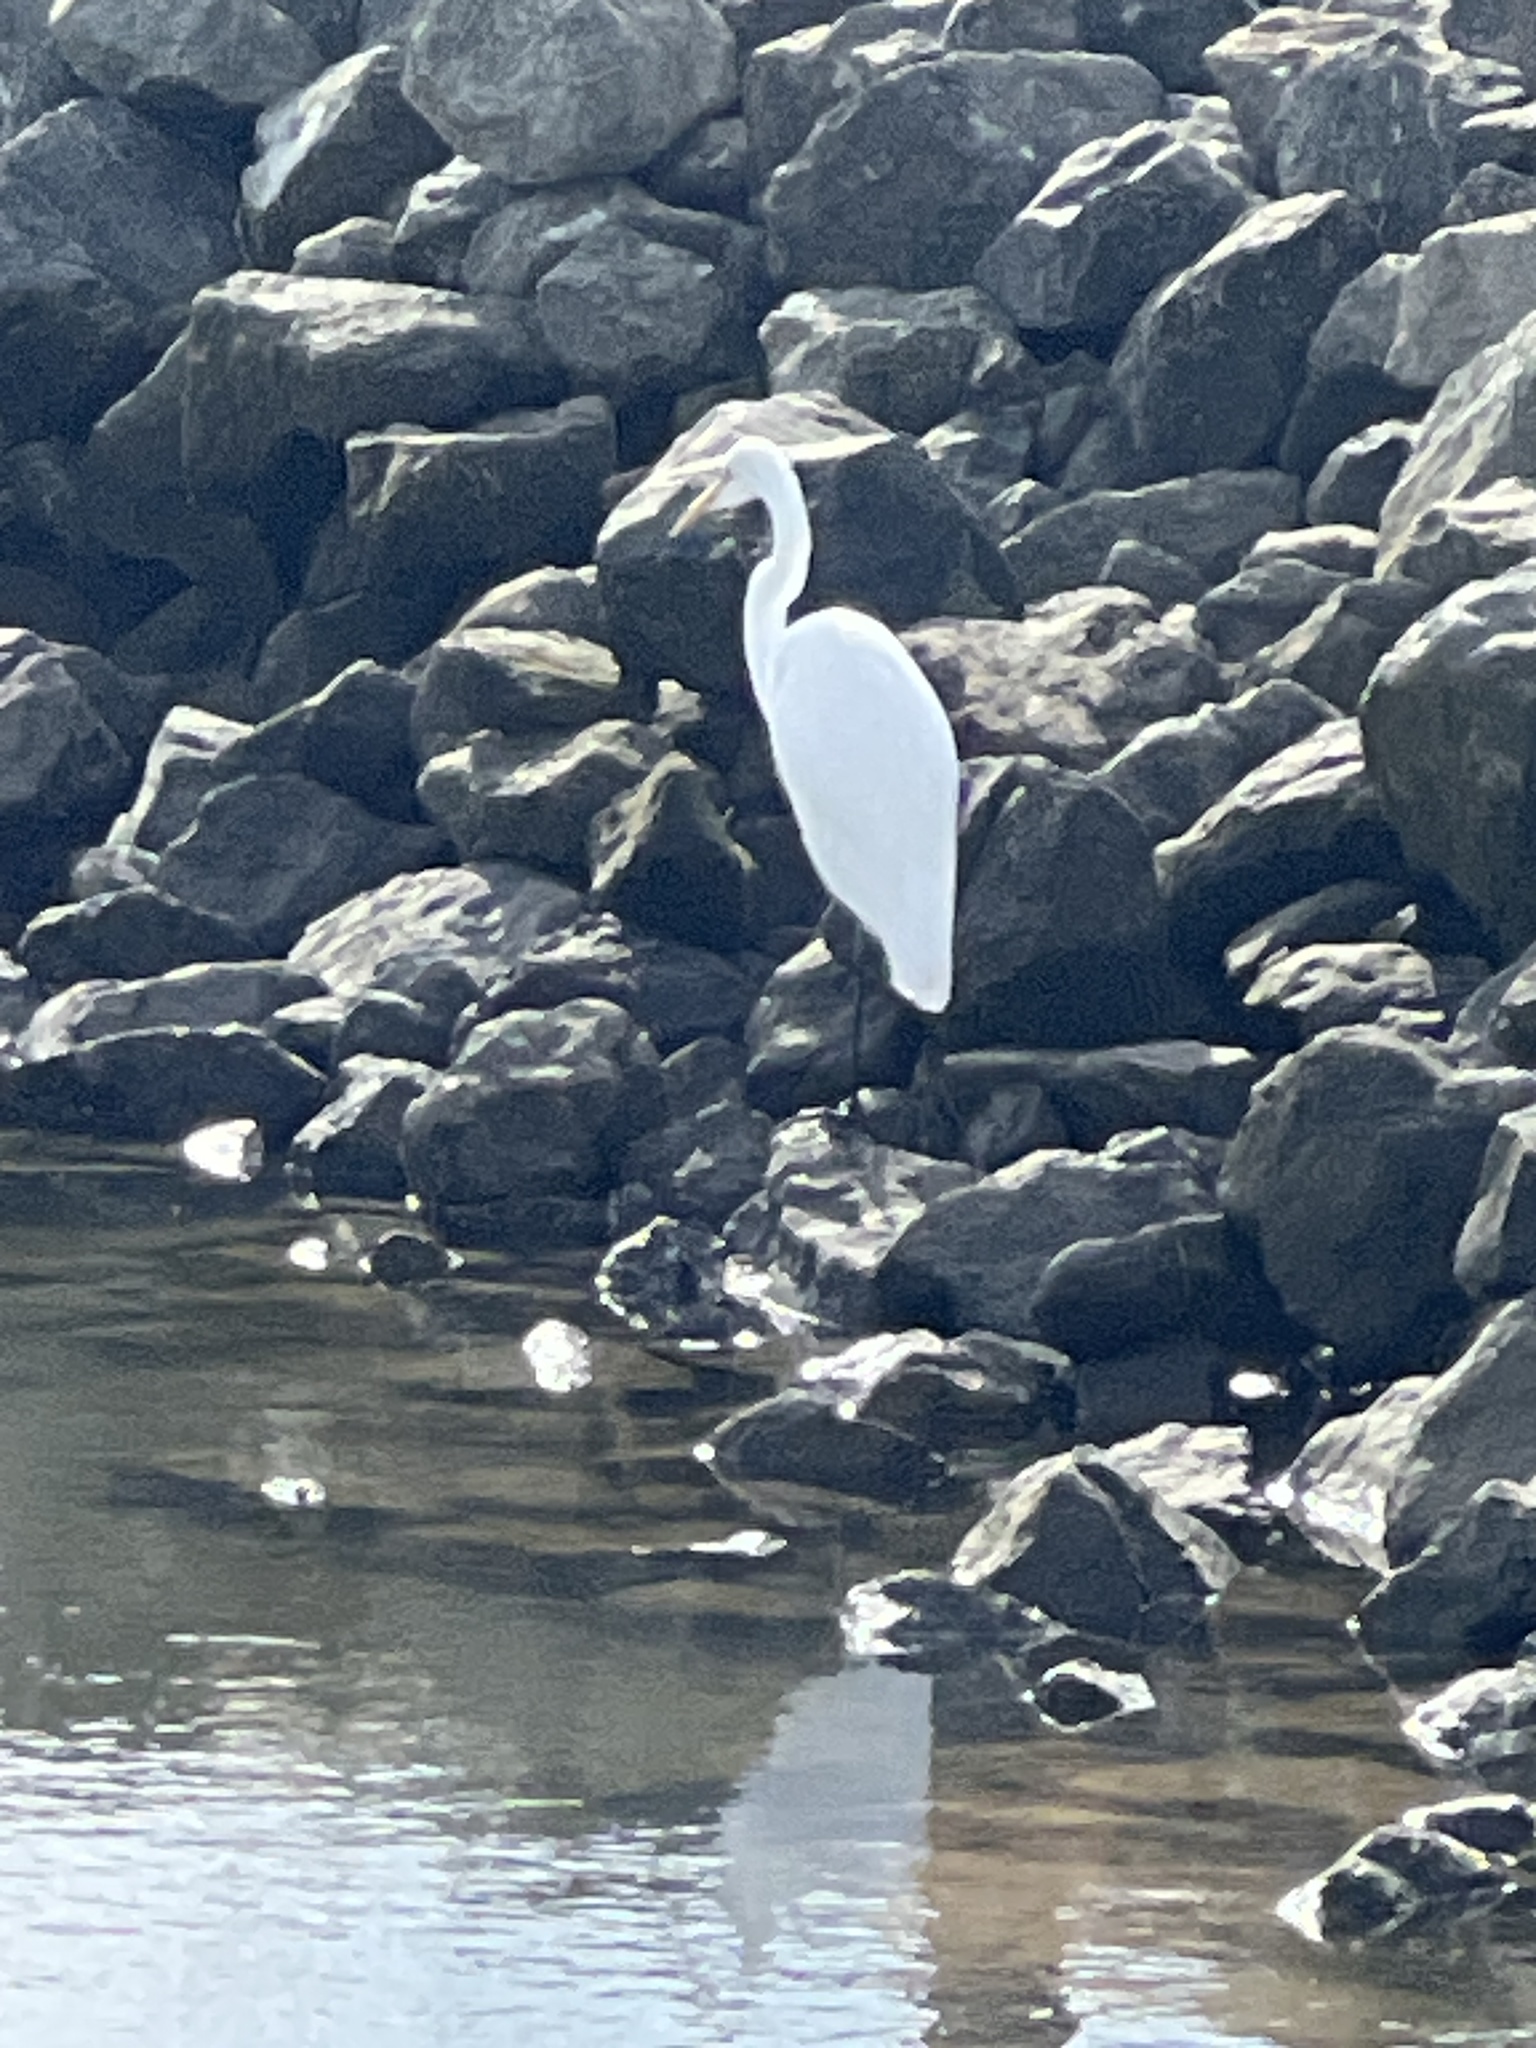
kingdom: Animalia
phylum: Chordata
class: Aves
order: Pelecaniformes
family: Ardeidae
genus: Ardea
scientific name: Ardea alba
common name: Great egret
